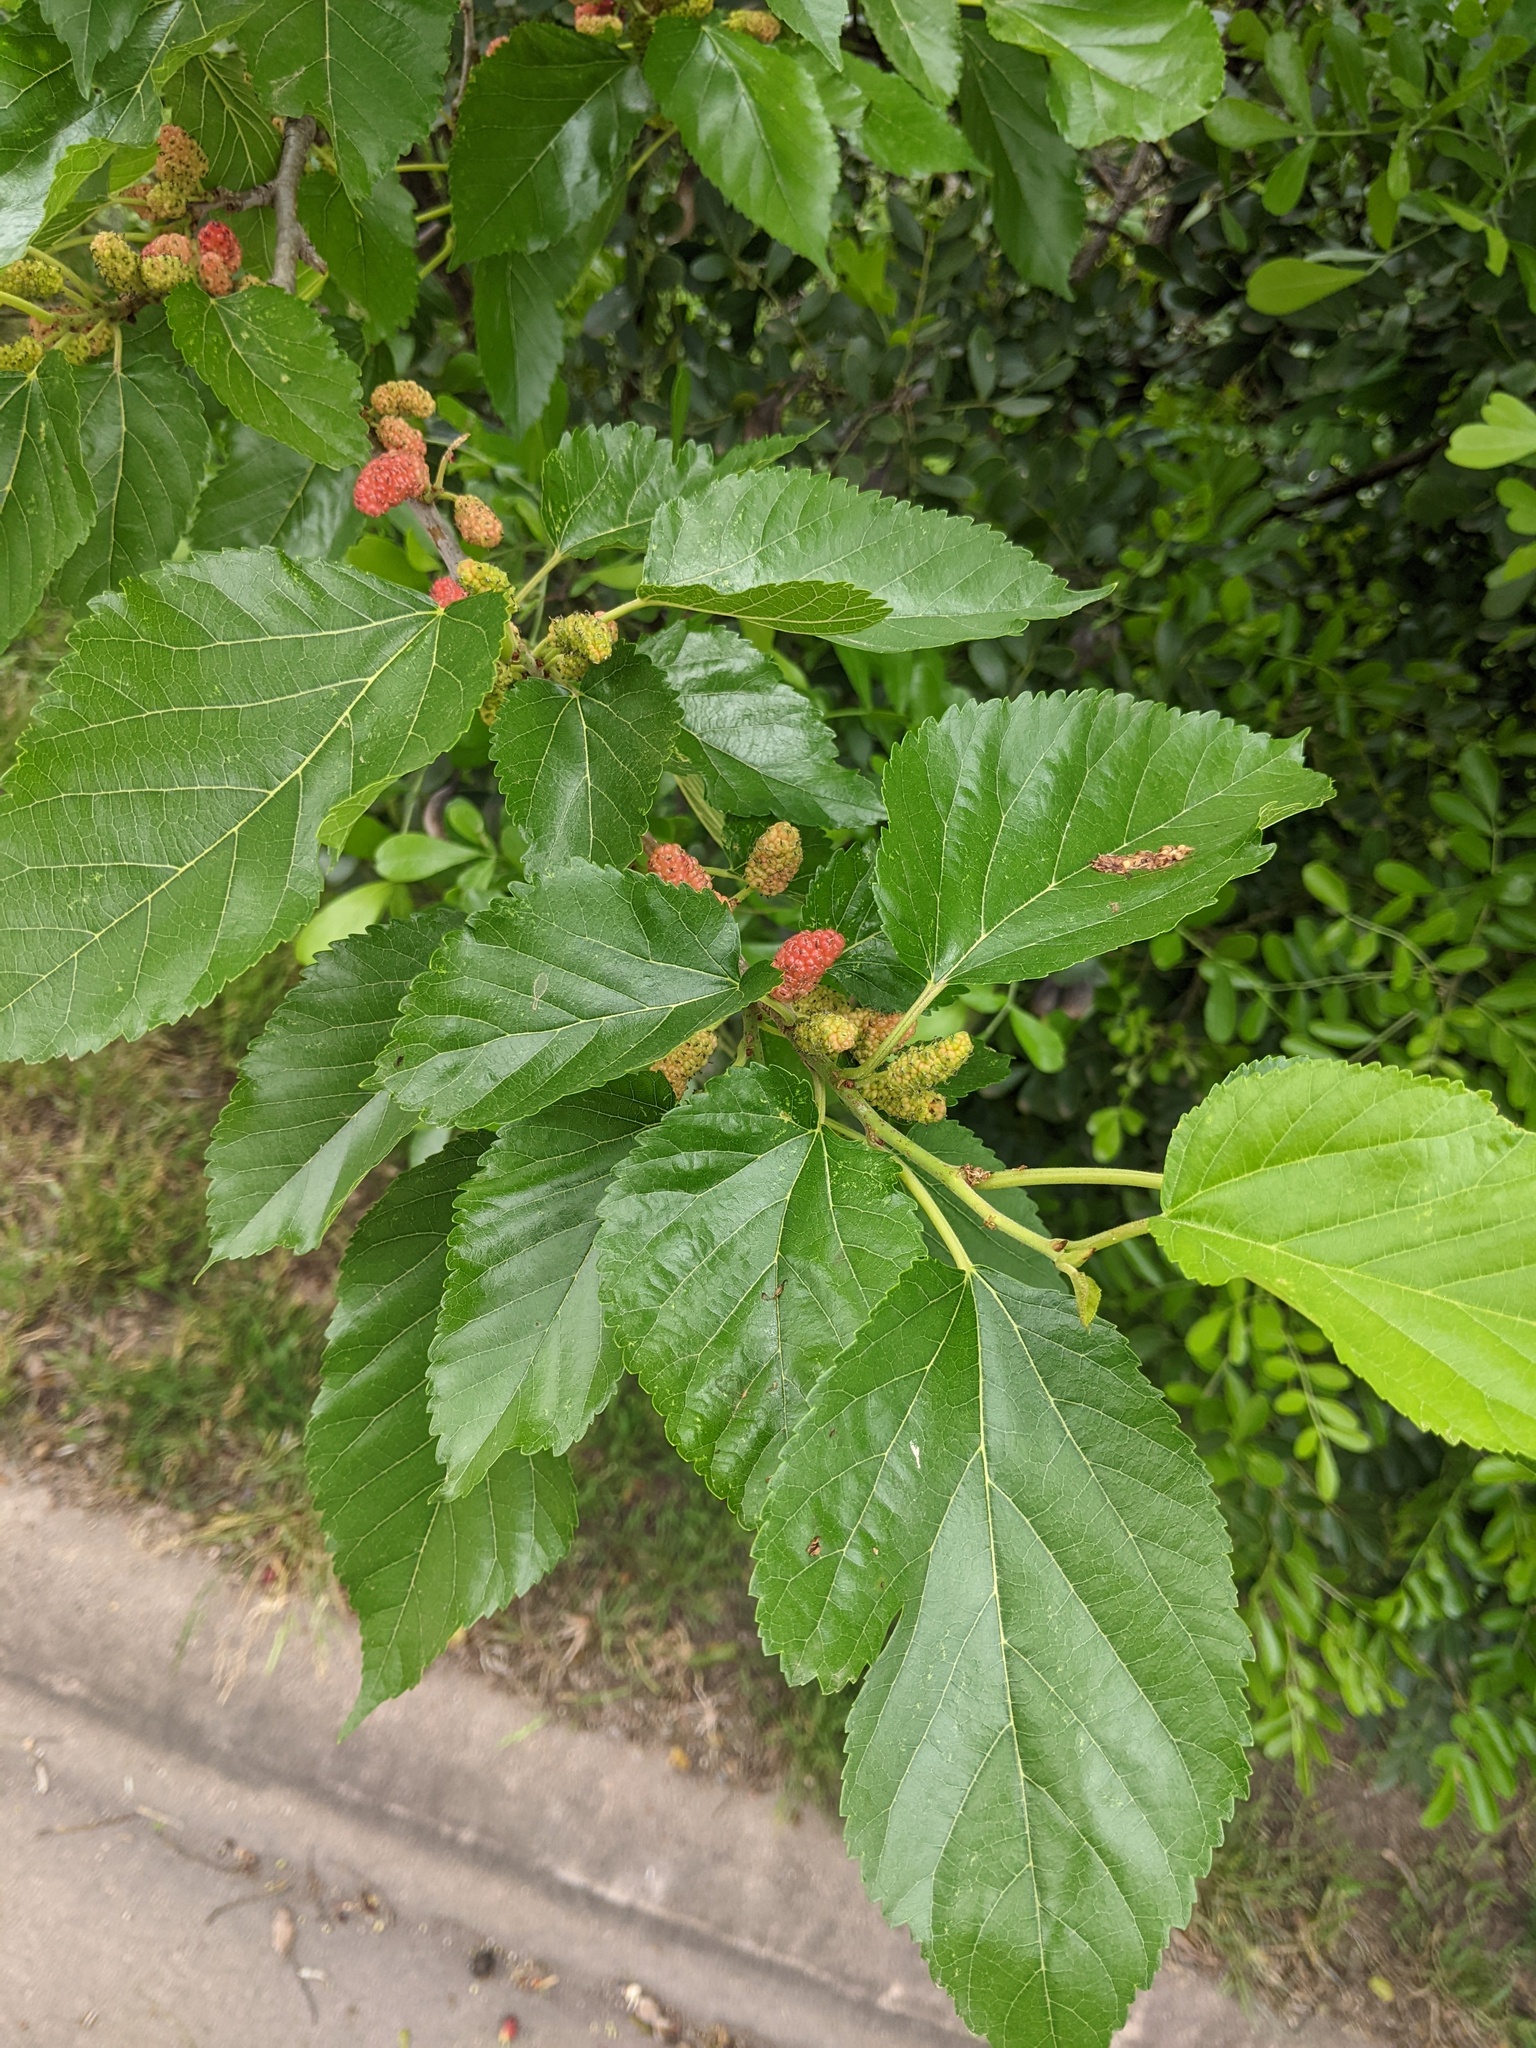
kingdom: Plantae
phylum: Tracheophyta
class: Magnoliopsida
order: Rosales
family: Moraceae
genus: Morus
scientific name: Morus alba
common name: White mulberry
